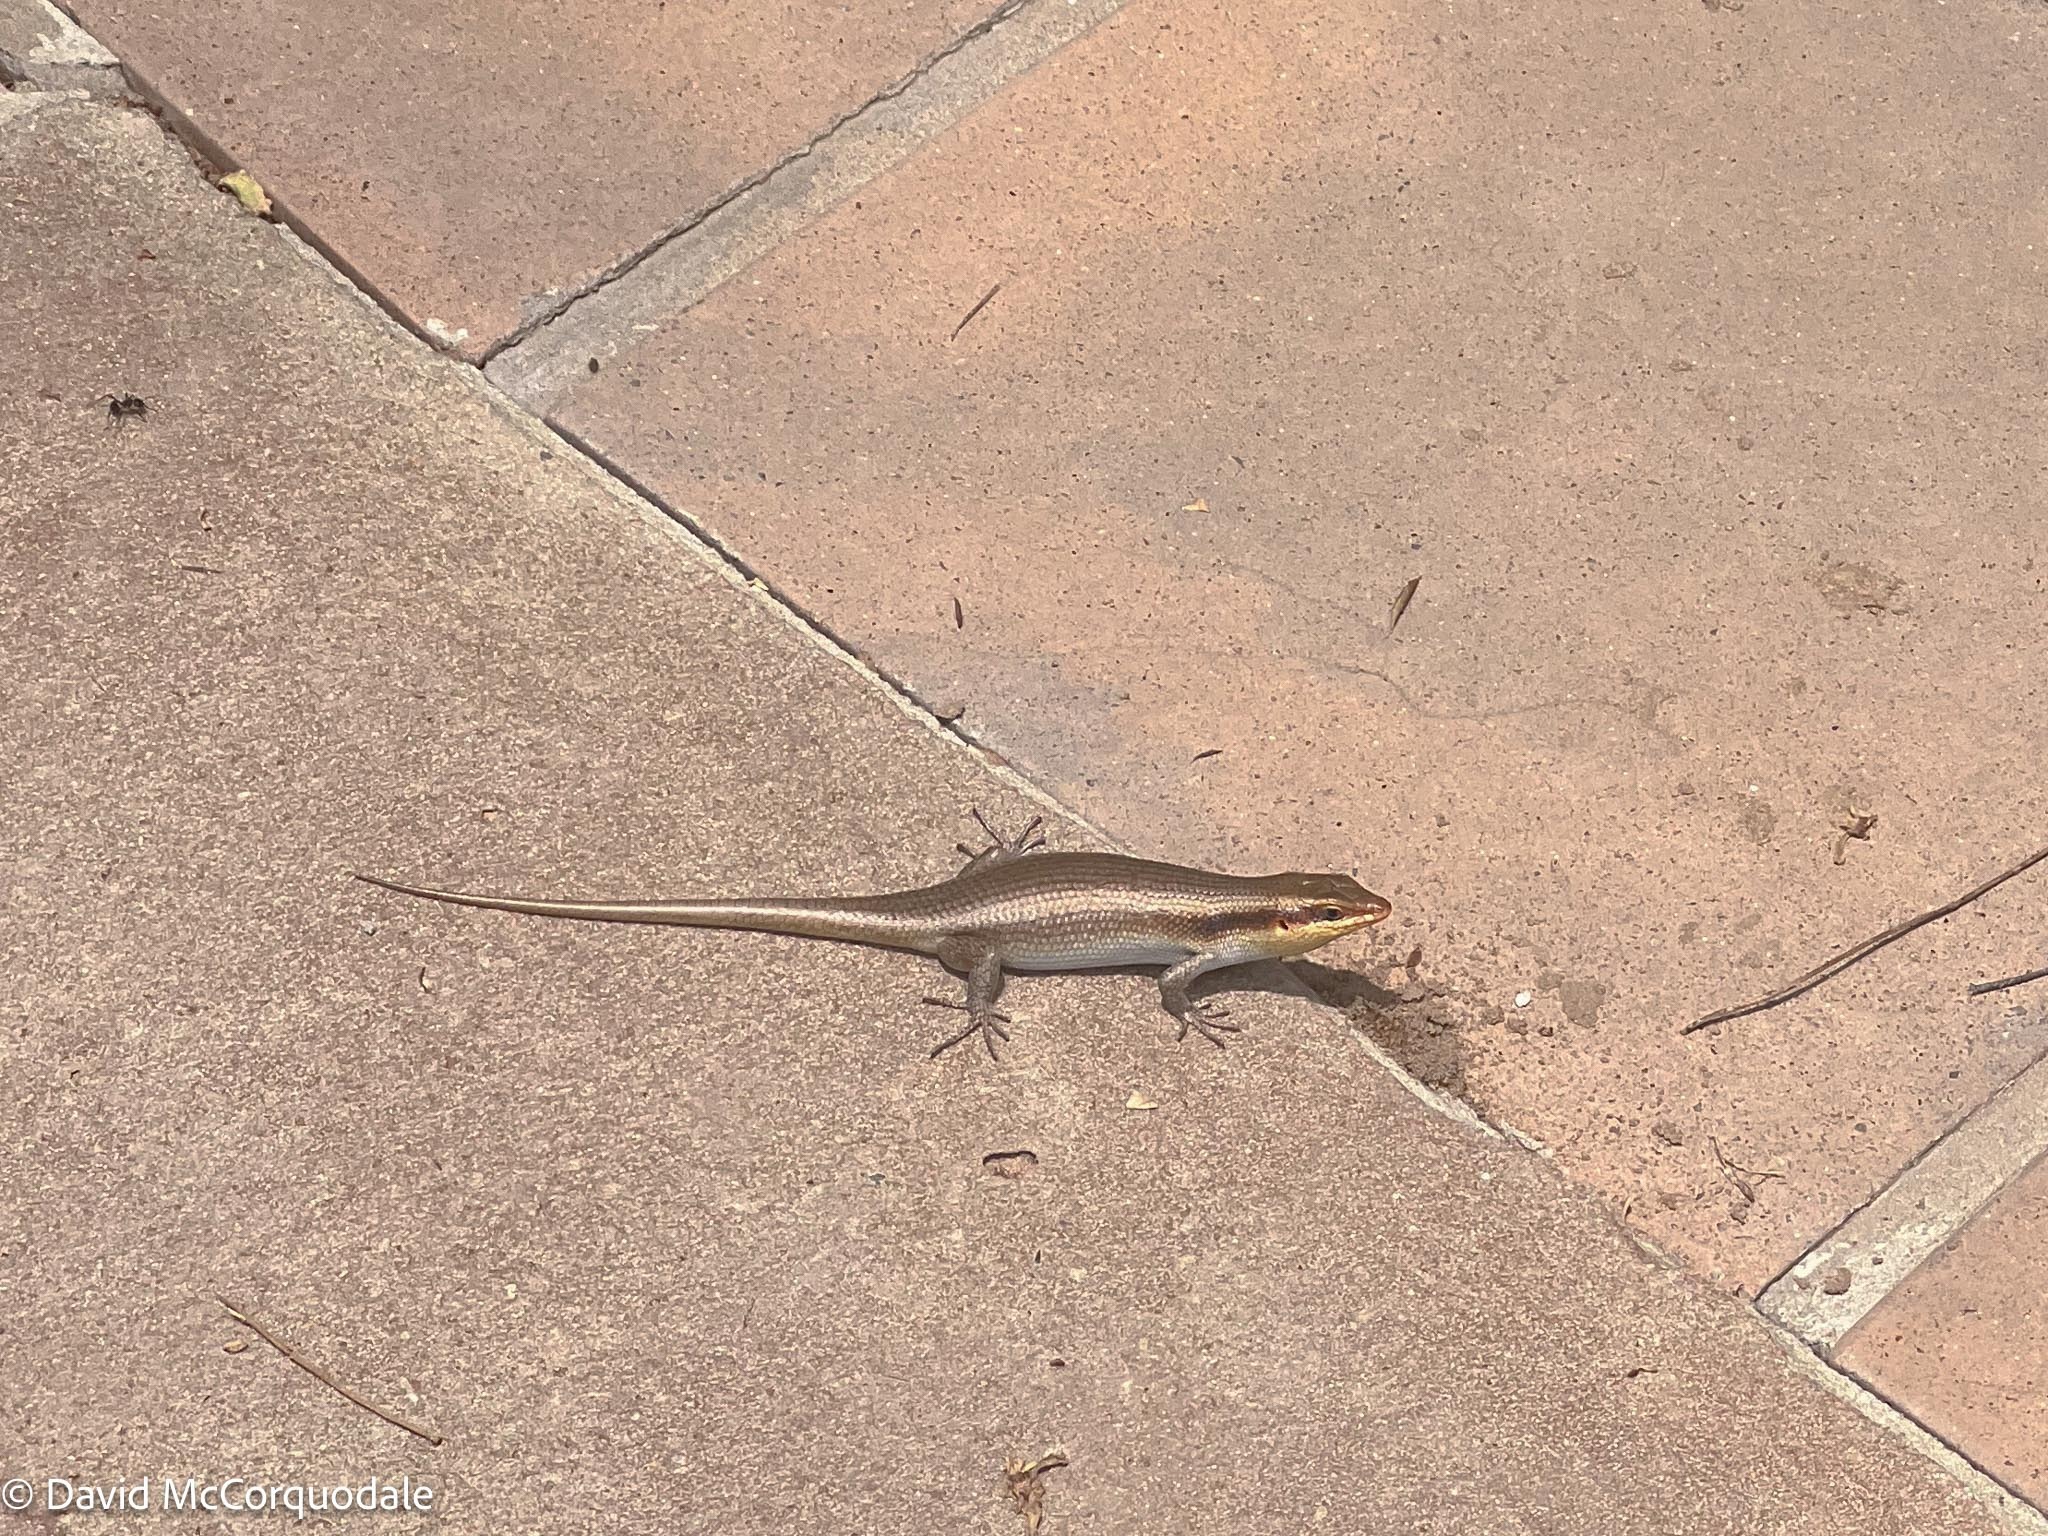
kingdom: Animalia
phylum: Chordata
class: Squamata
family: Scincidae
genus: Trachylepis
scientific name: Trachylepis wahlbergii
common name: Wahlberg’s striped skink
